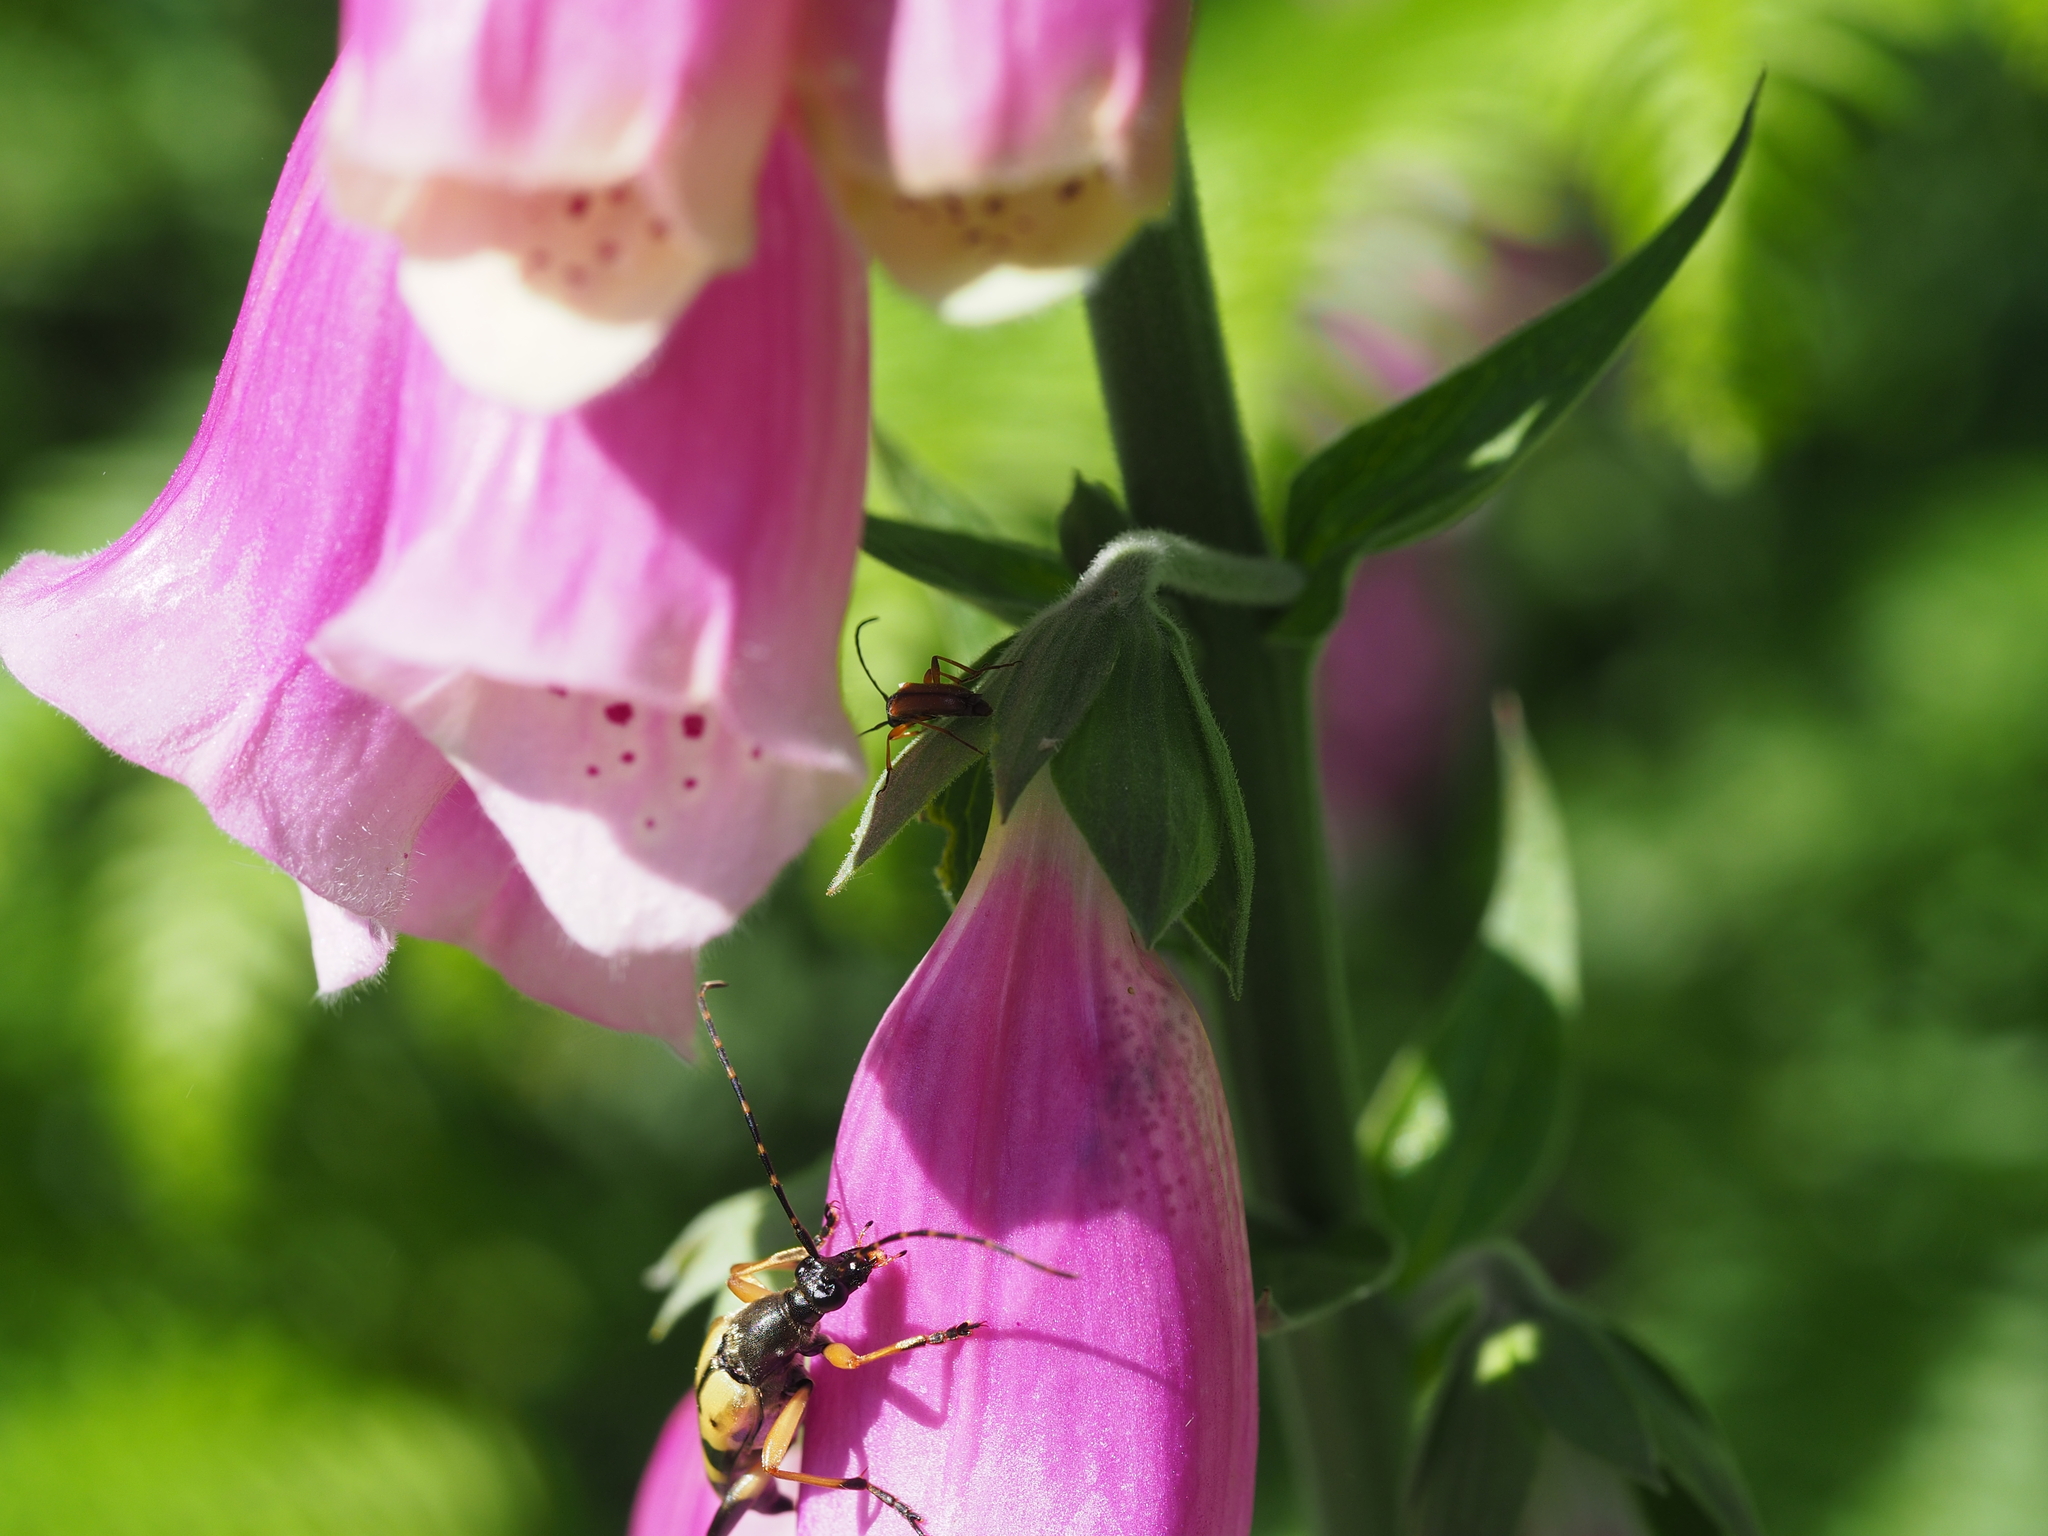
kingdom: Animalia
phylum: Arthropoda
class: Insecta
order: Coleoptera
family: Cerambycidae
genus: Alosterna
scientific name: Alosterna tabacicolor
